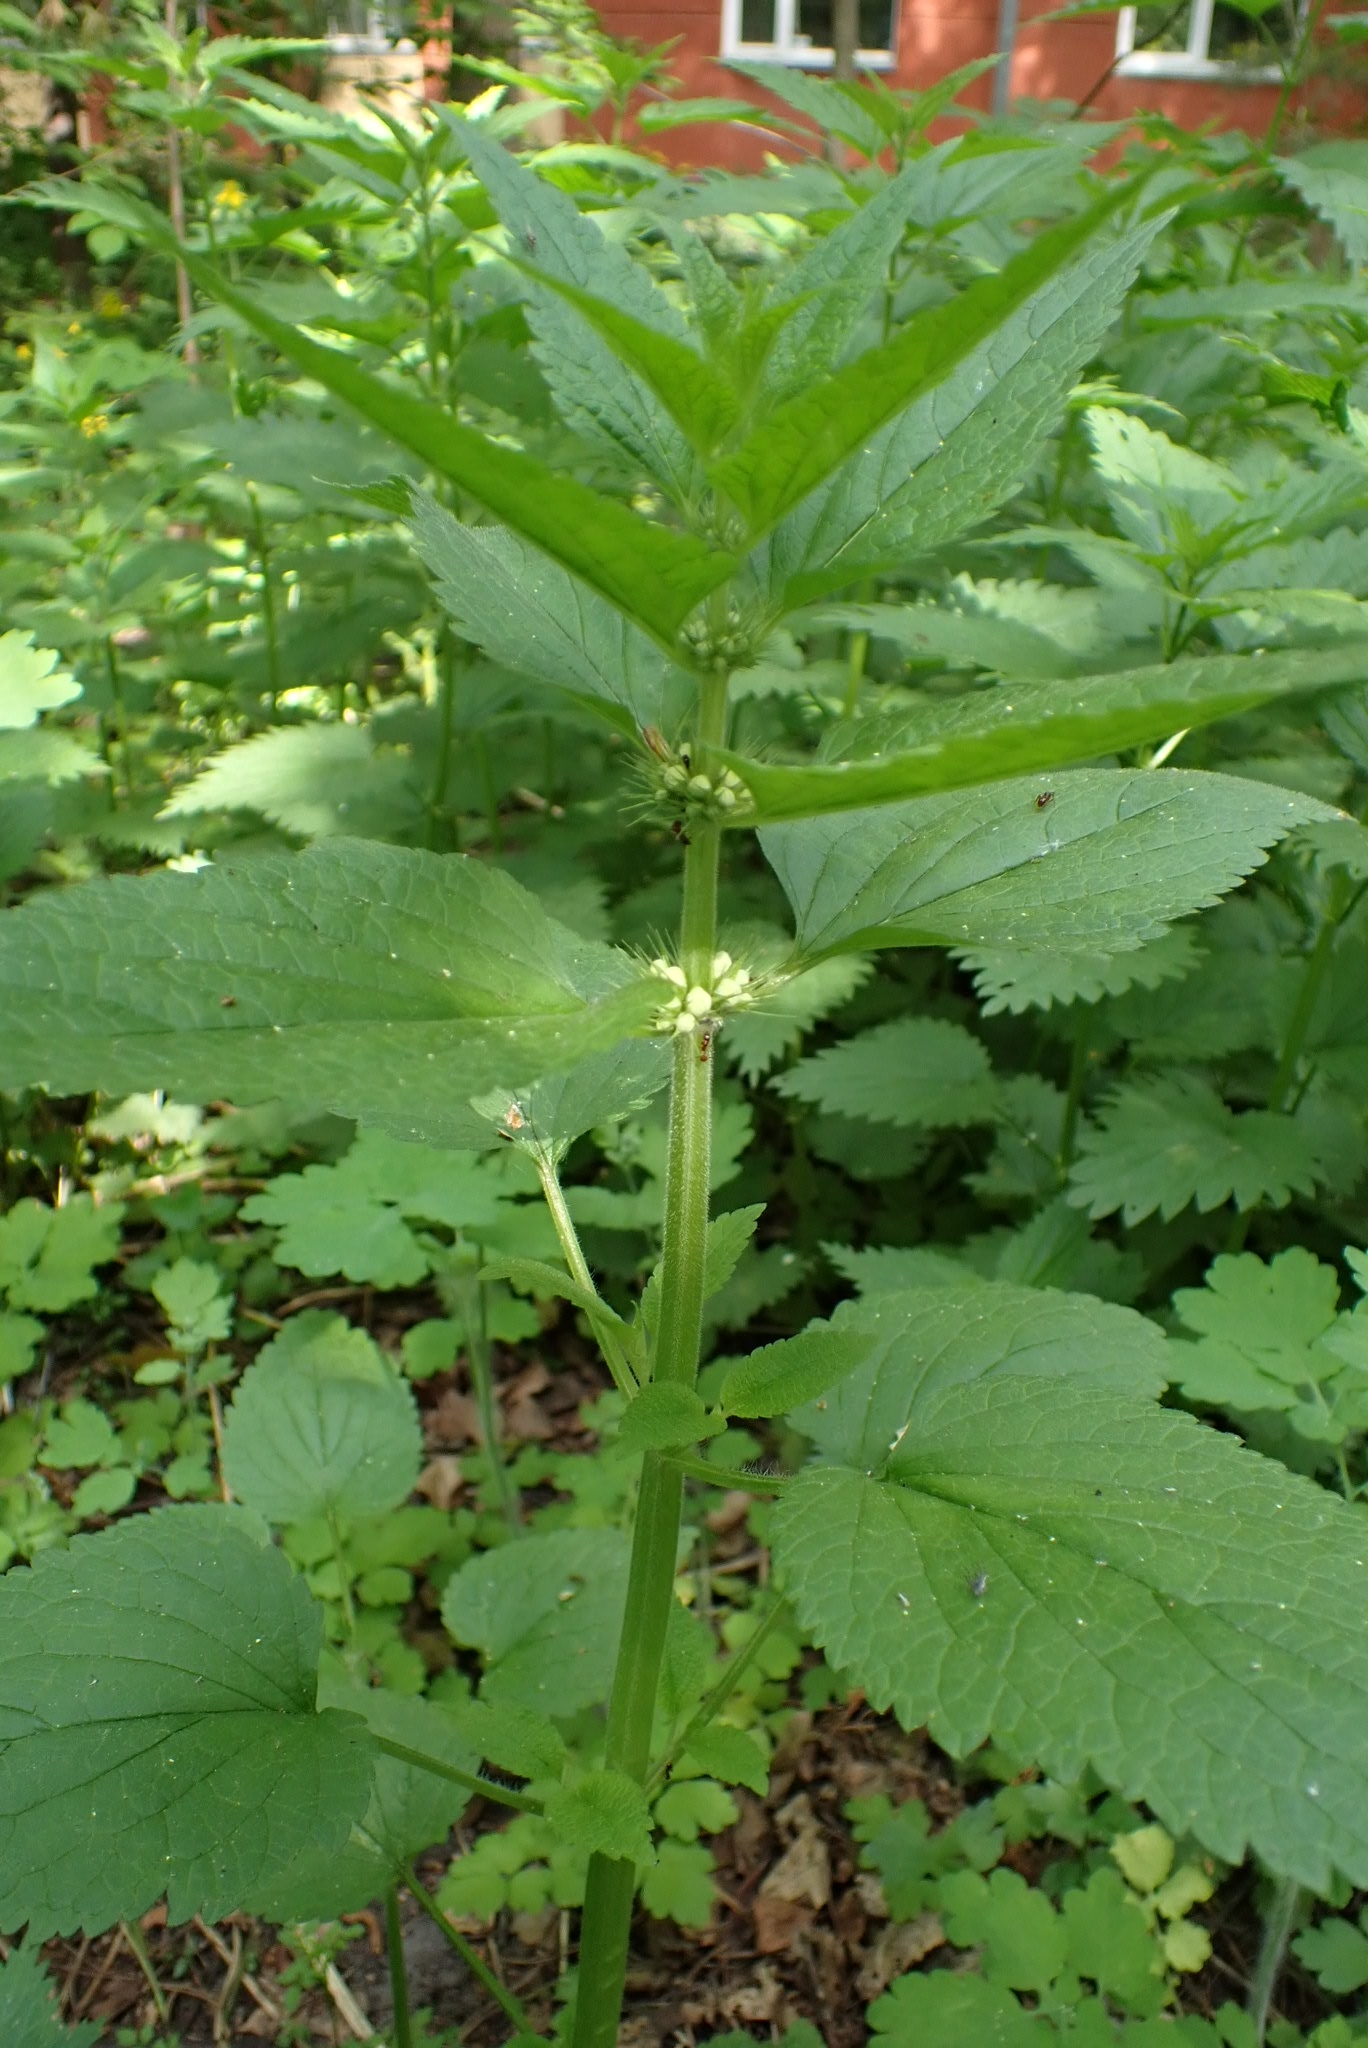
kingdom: Plantae
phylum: Tracheophyta
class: Magnoliopsida
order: Lamiales
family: Lamiaceae
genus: Lamium
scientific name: Lamium album
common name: White dead-nettle
